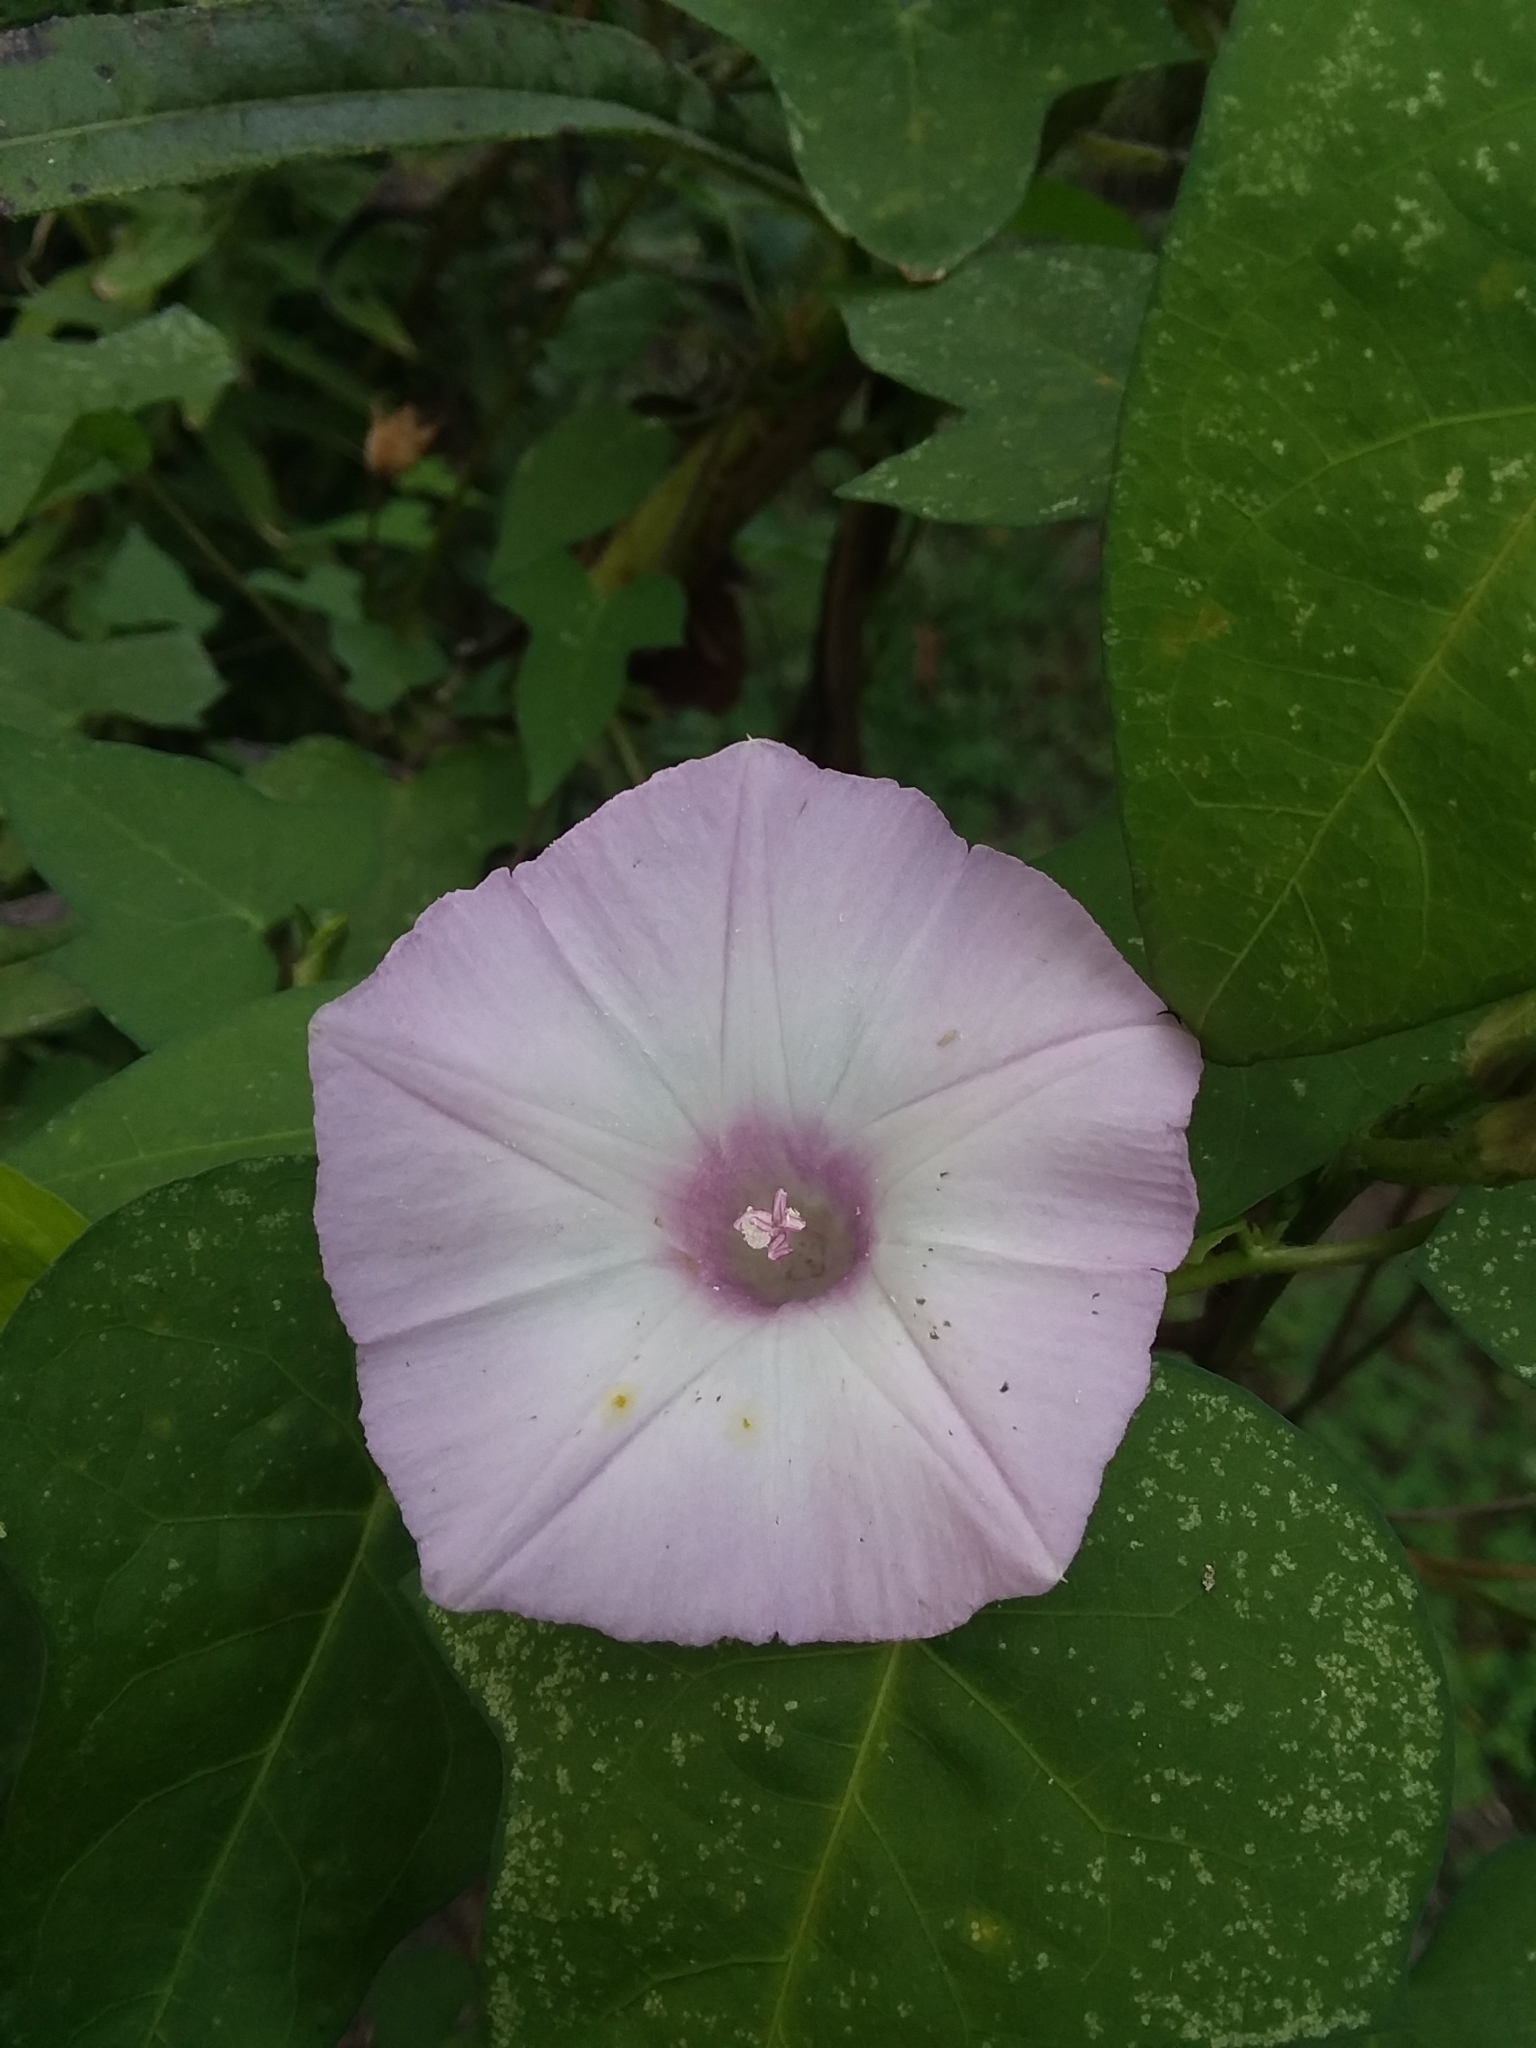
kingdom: Plantae
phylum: Tracheophyta
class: Magnoliopsida
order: Solanales
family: Convolvulaceae
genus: Ipomoea
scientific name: Ipomoea cordatotriloba
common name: Cotton morning glory
